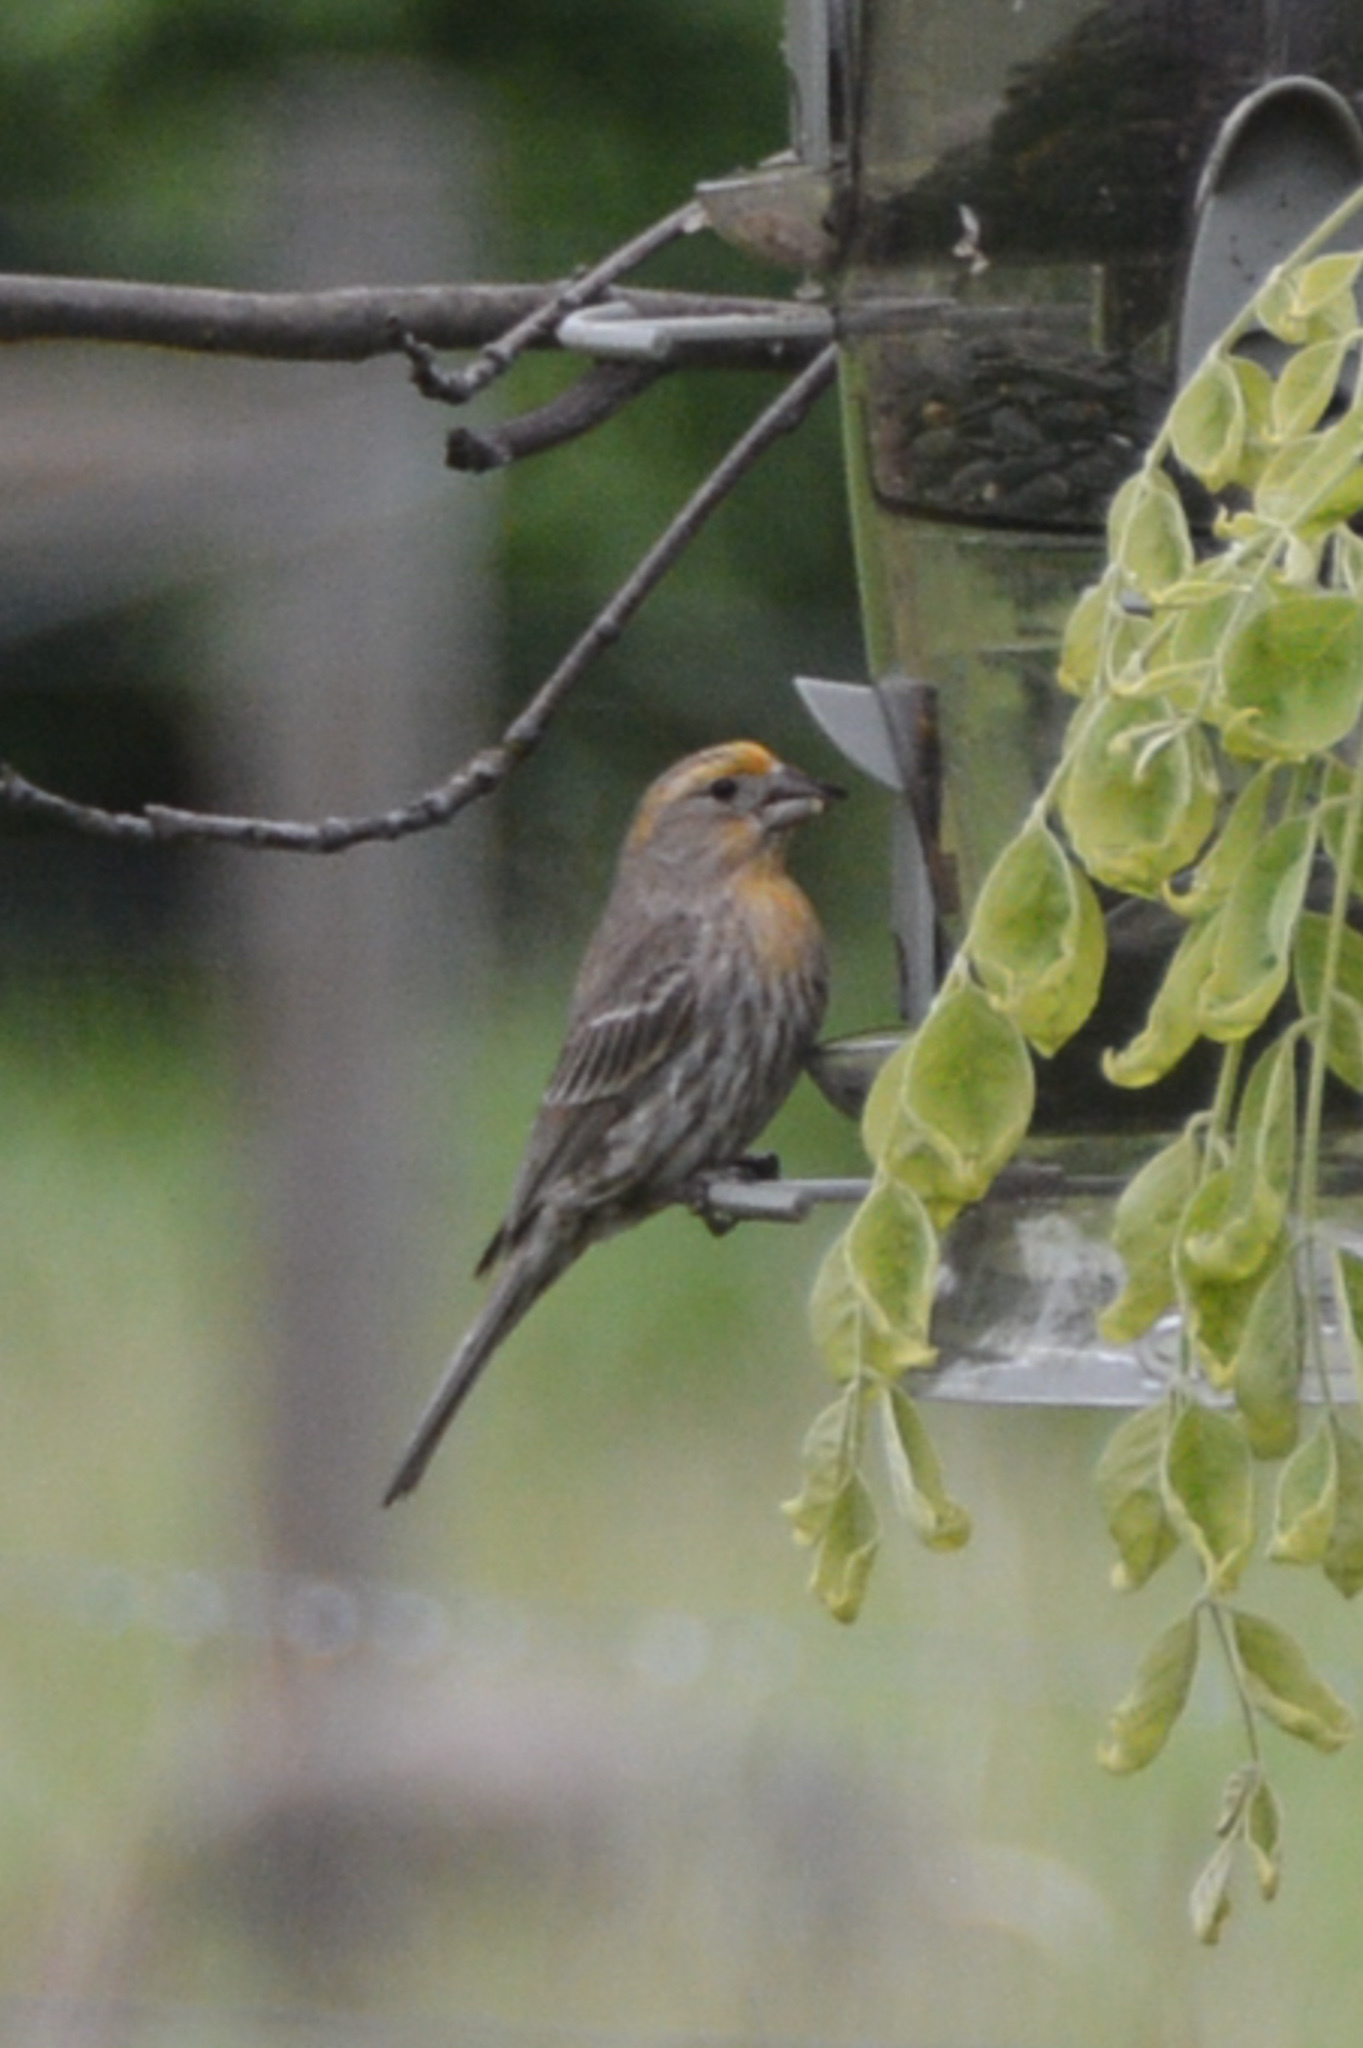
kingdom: Animalia
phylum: Chordata
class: Aves
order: Passeriformes
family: Fringillidae
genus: Haemorhous
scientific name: Haemorhous mexicanus
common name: House finch
